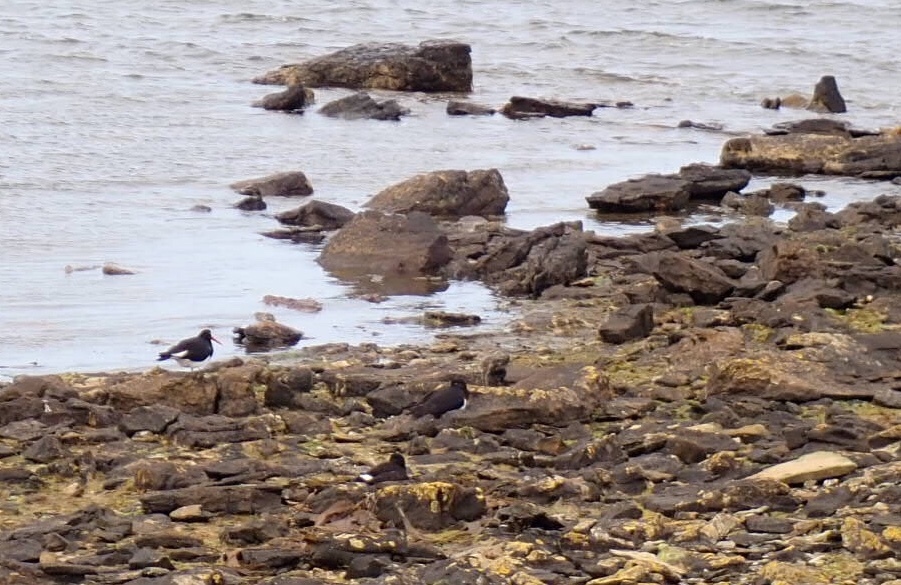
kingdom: Animalia
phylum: Chordata
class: Aves
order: Charadriiformes
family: Haematopodidae
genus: Haematopus
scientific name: Haematopus leucopodus
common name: Magellanic oystercatcher
